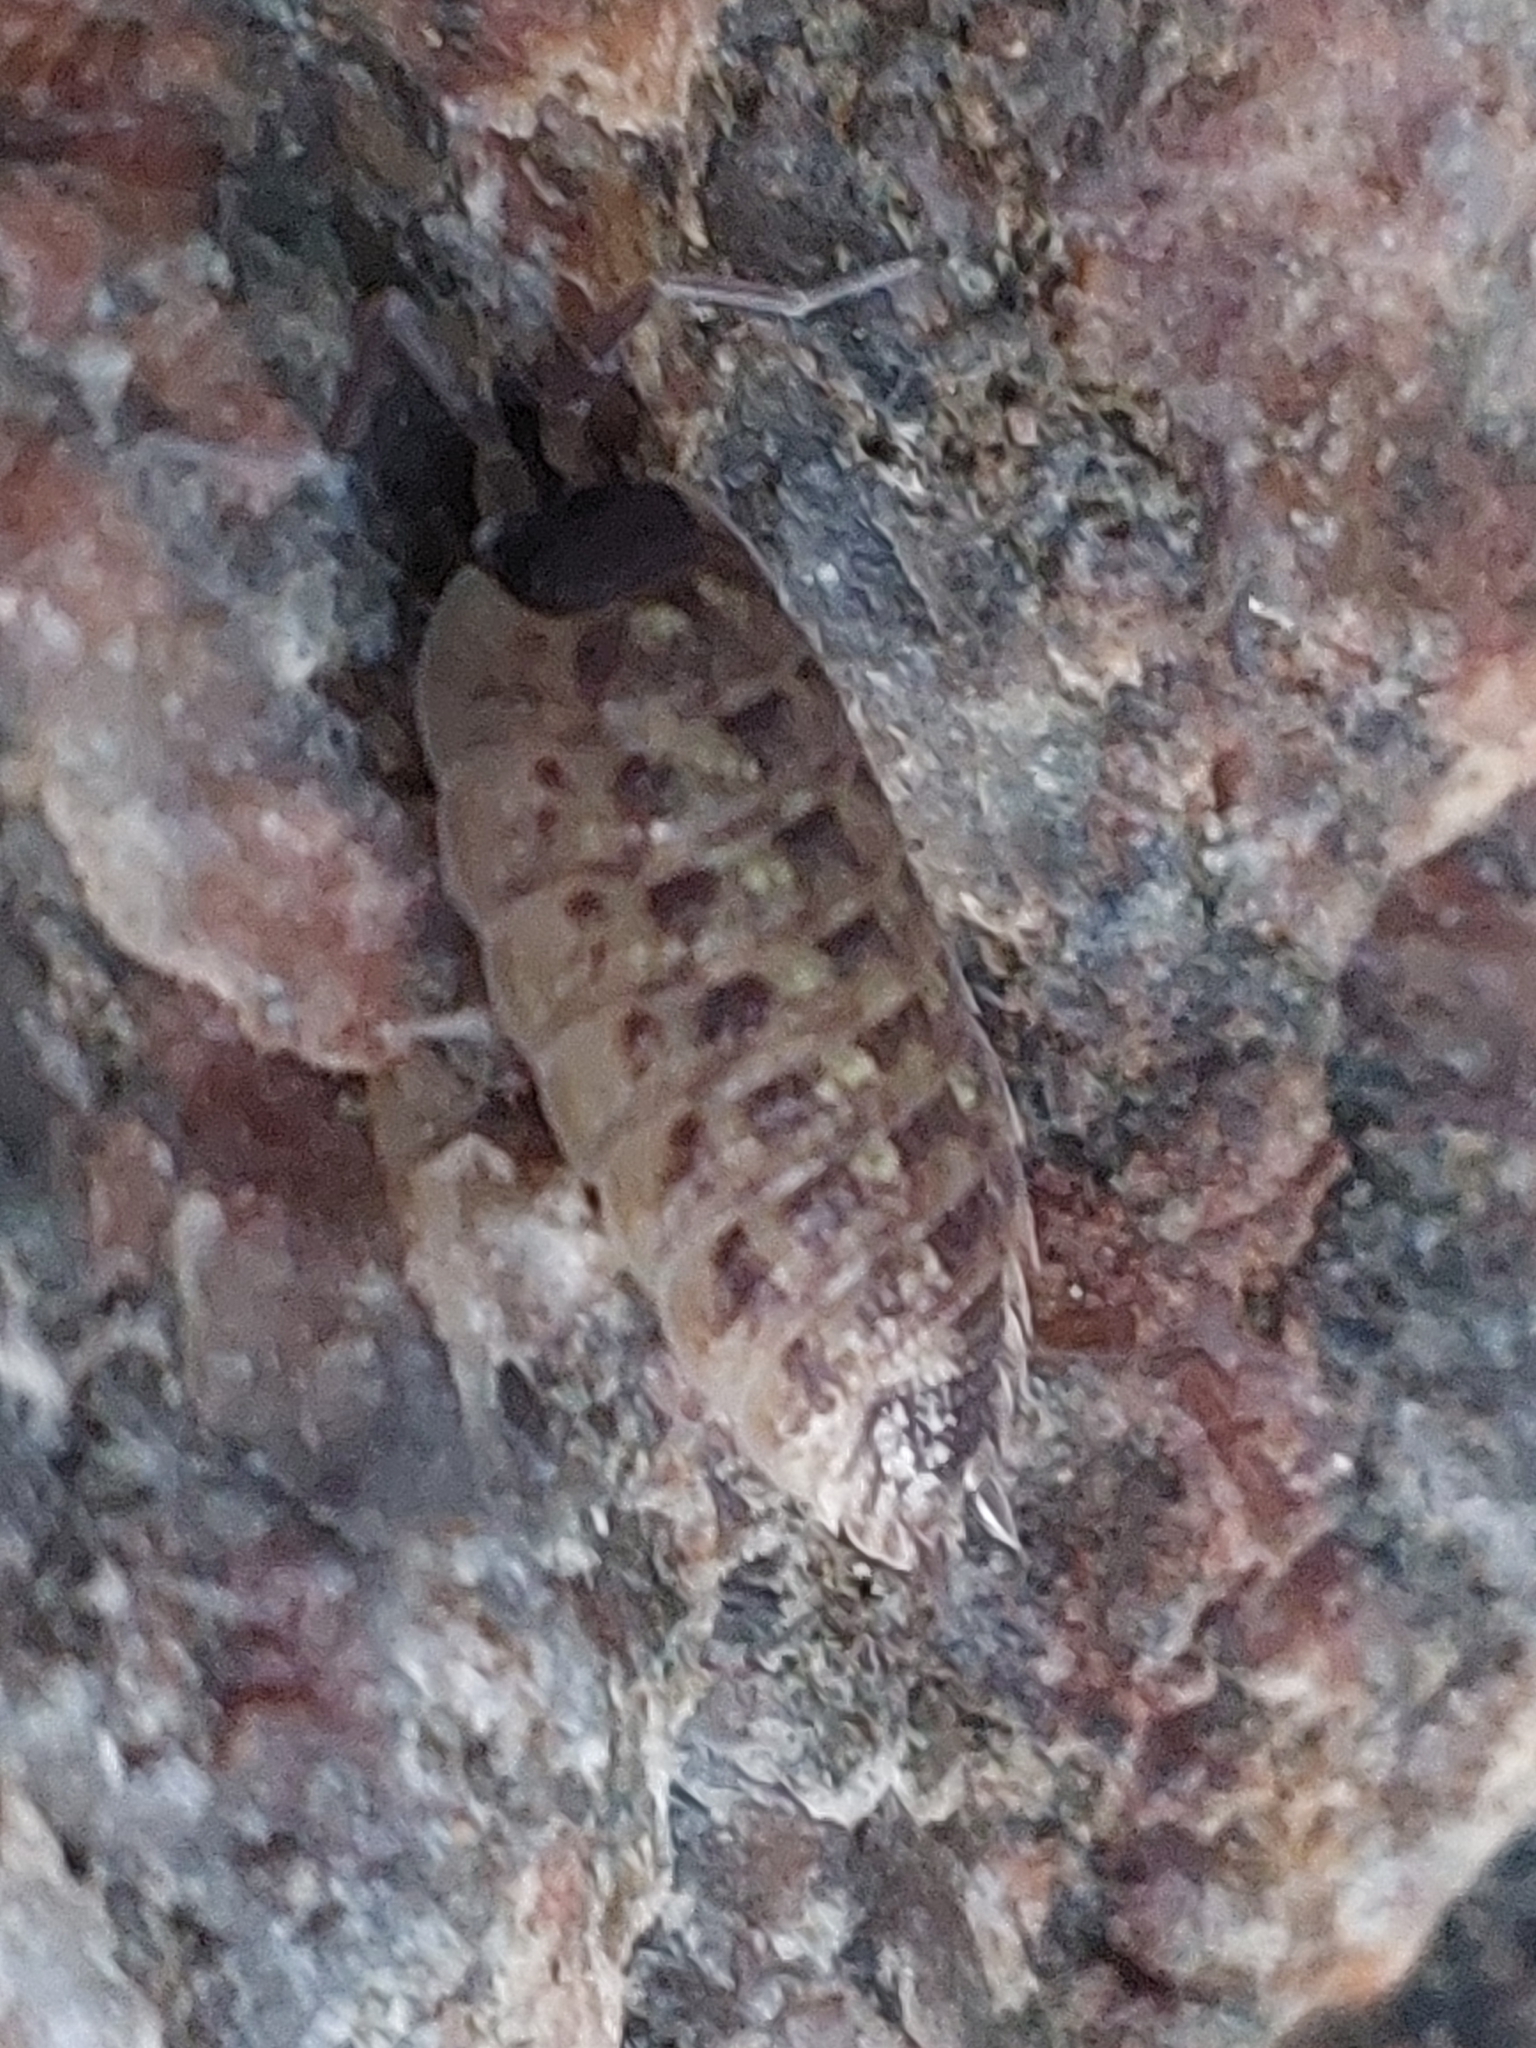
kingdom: Animalia
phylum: Arthropoda
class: Malacostraca
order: Isopoda
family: Porcellionidae
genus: Porcellio
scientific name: Porcellio spinicornis
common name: Painted woodlouse
